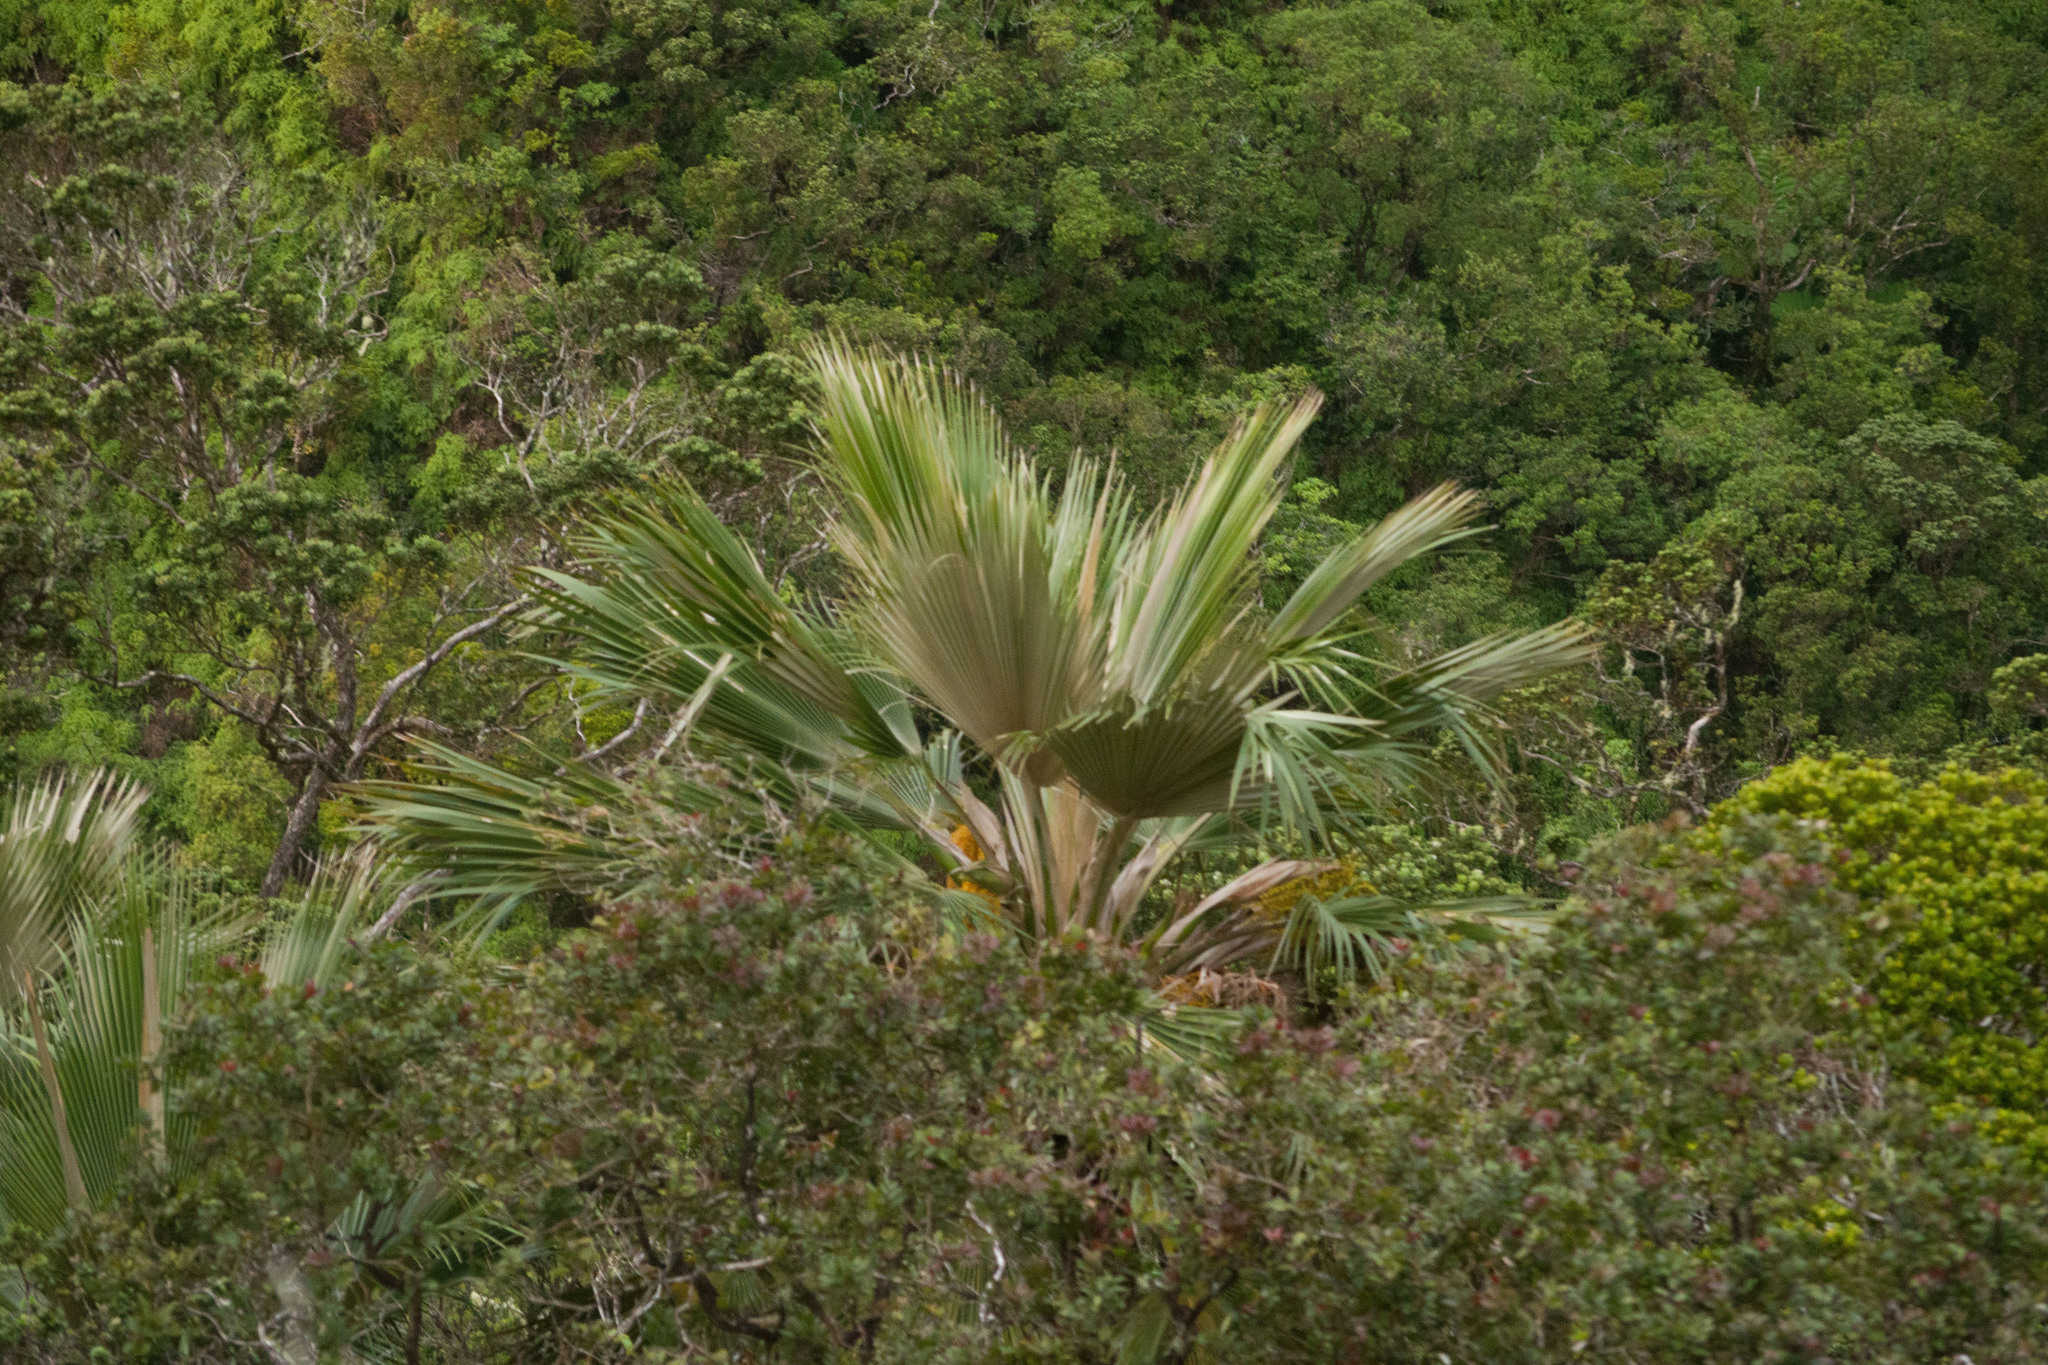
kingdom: Plantae
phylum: Tracheophyta
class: Liliopsida
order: Arecales
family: Arecaceae
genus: Pritchardia
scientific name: Pritchardia martii
